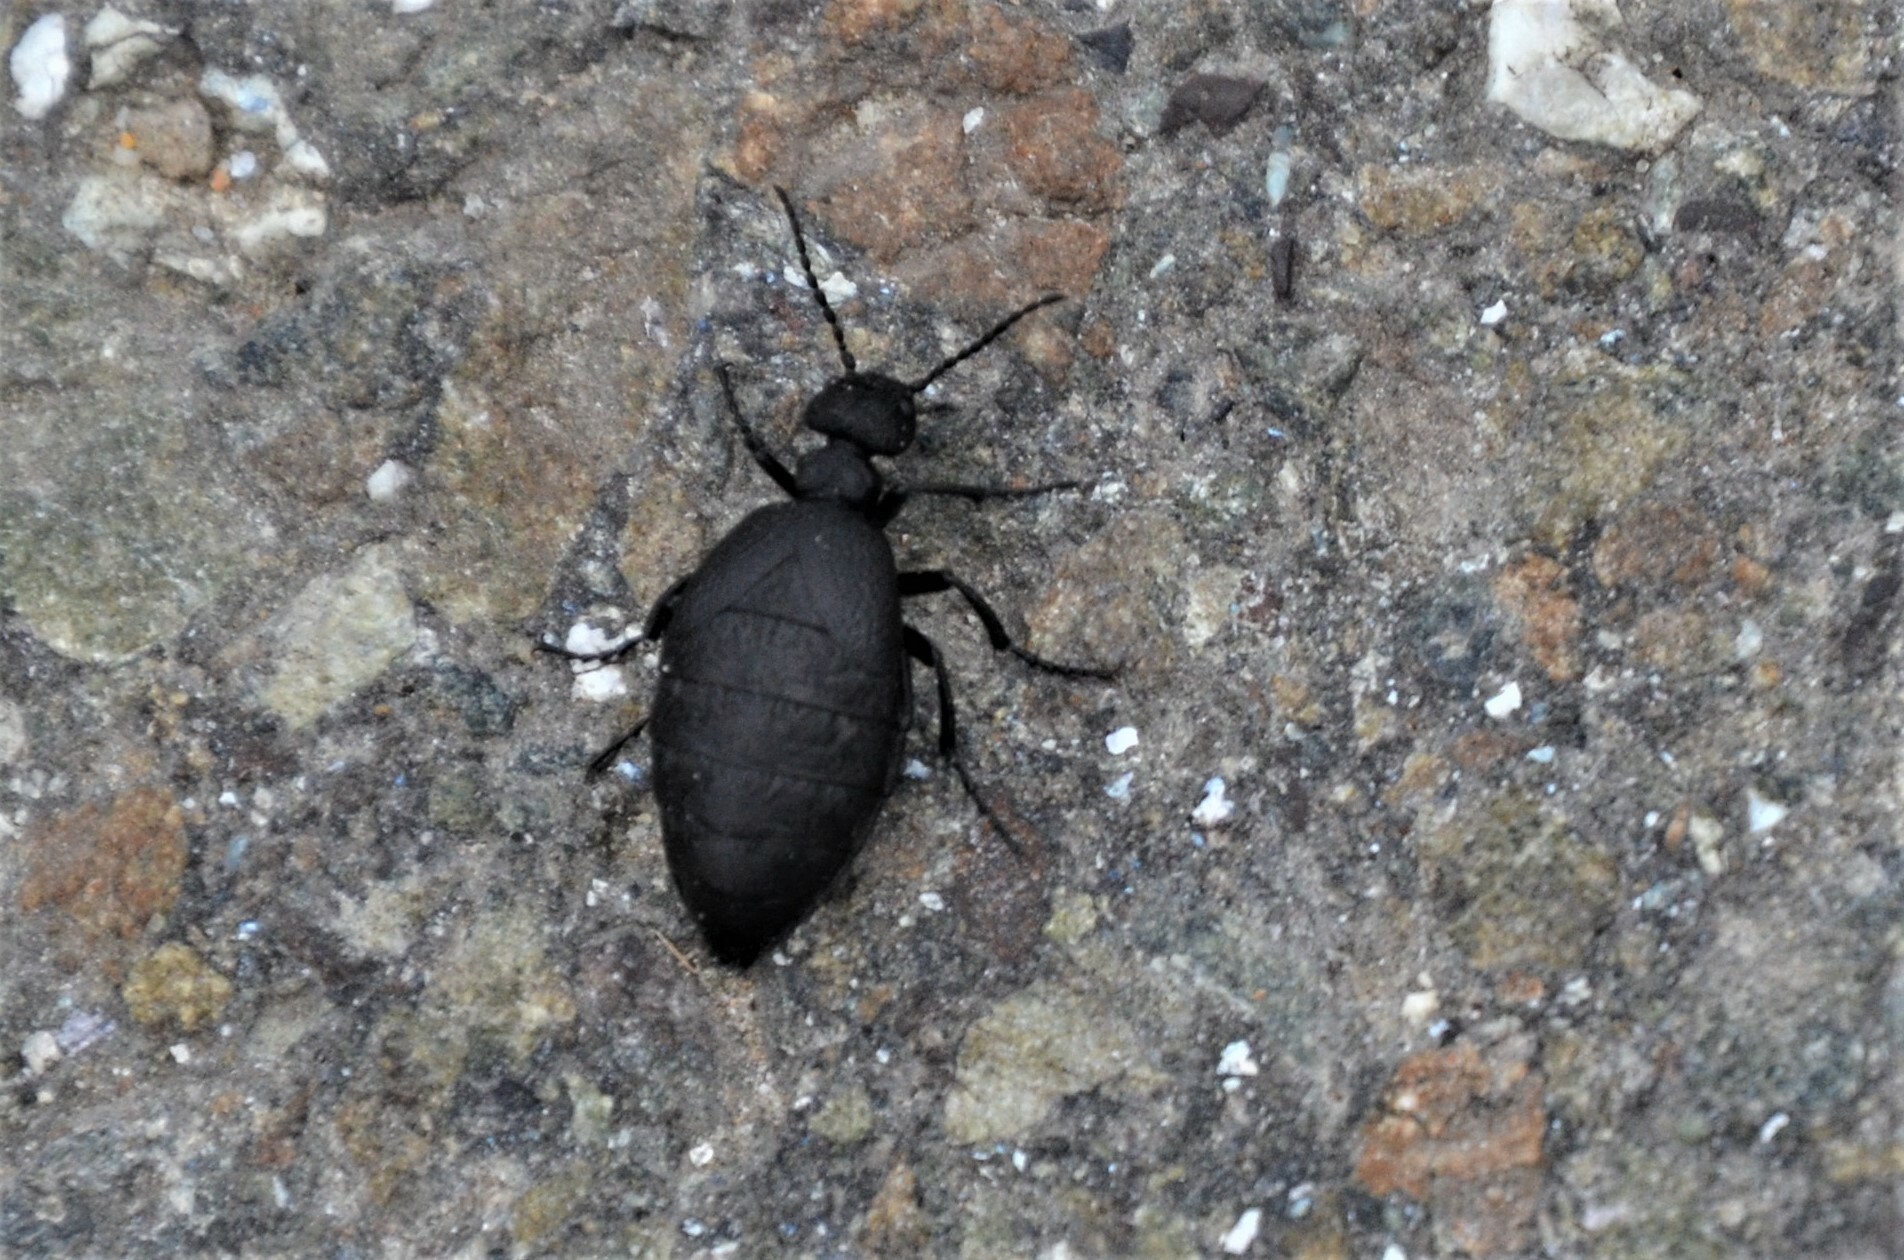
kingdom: Animalia
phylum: Arthropoda
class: Insecta
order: Coleoptera
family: Meloidae
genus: Meloe
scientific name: Meloe rugosus
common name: Rugged oil-beetle
